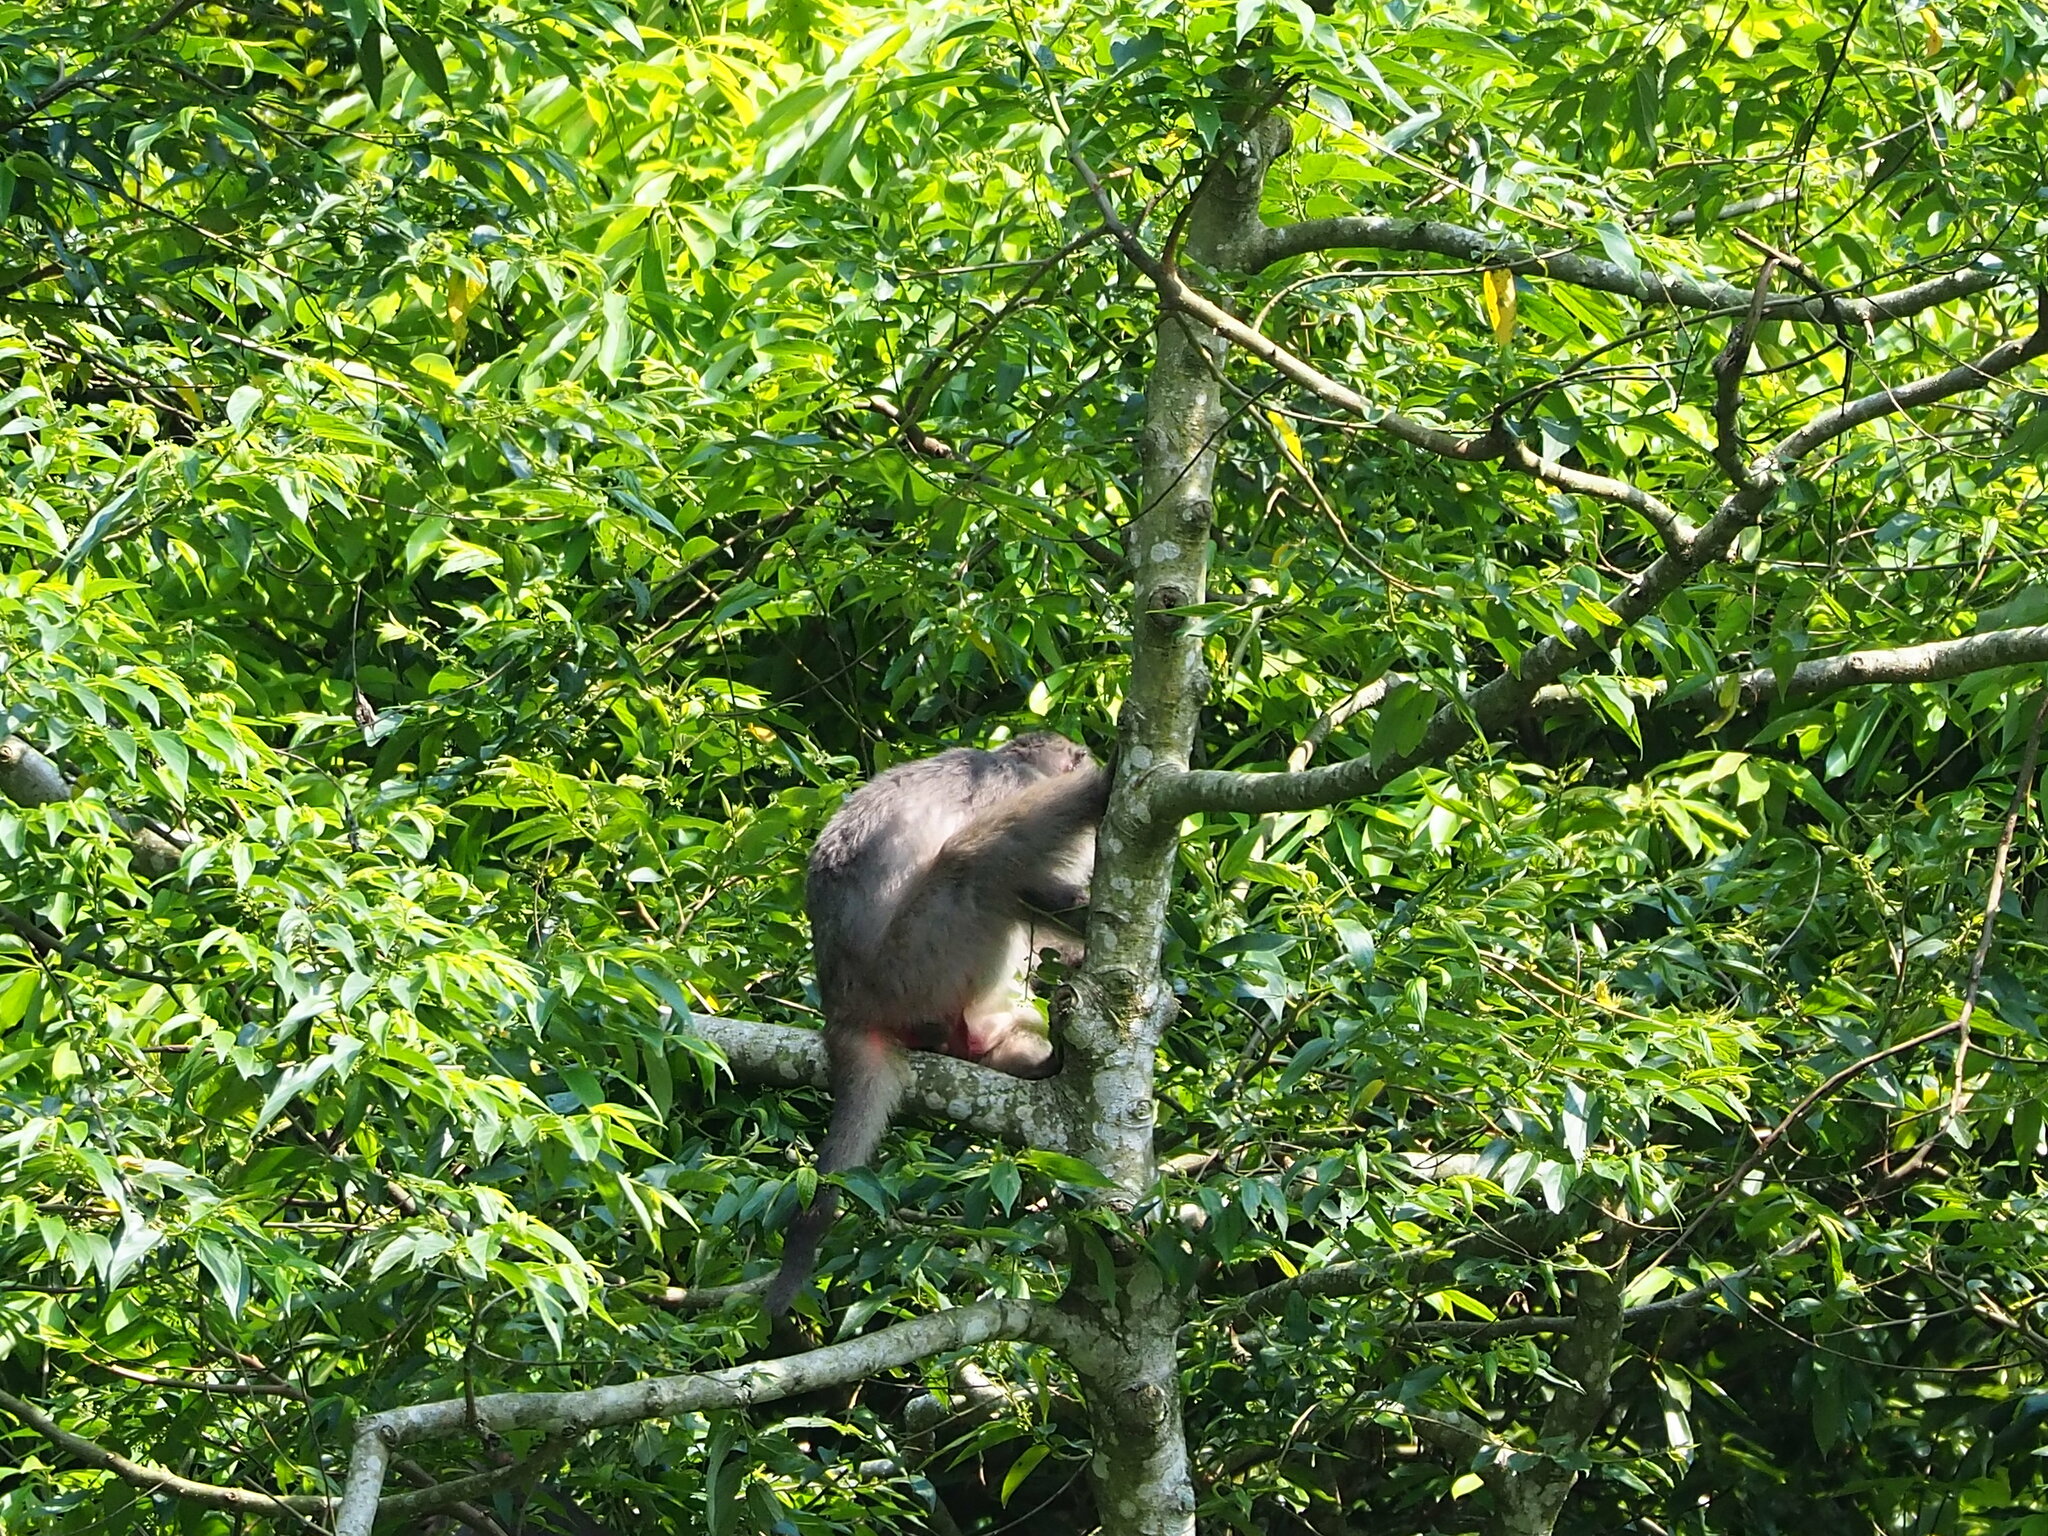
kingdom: Animalia
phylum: Chordata
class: Mammalia
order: Primates
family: Cercopithecidae
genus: Macaca
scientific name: Macaca cyclopis
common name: Formosan rock macaque
